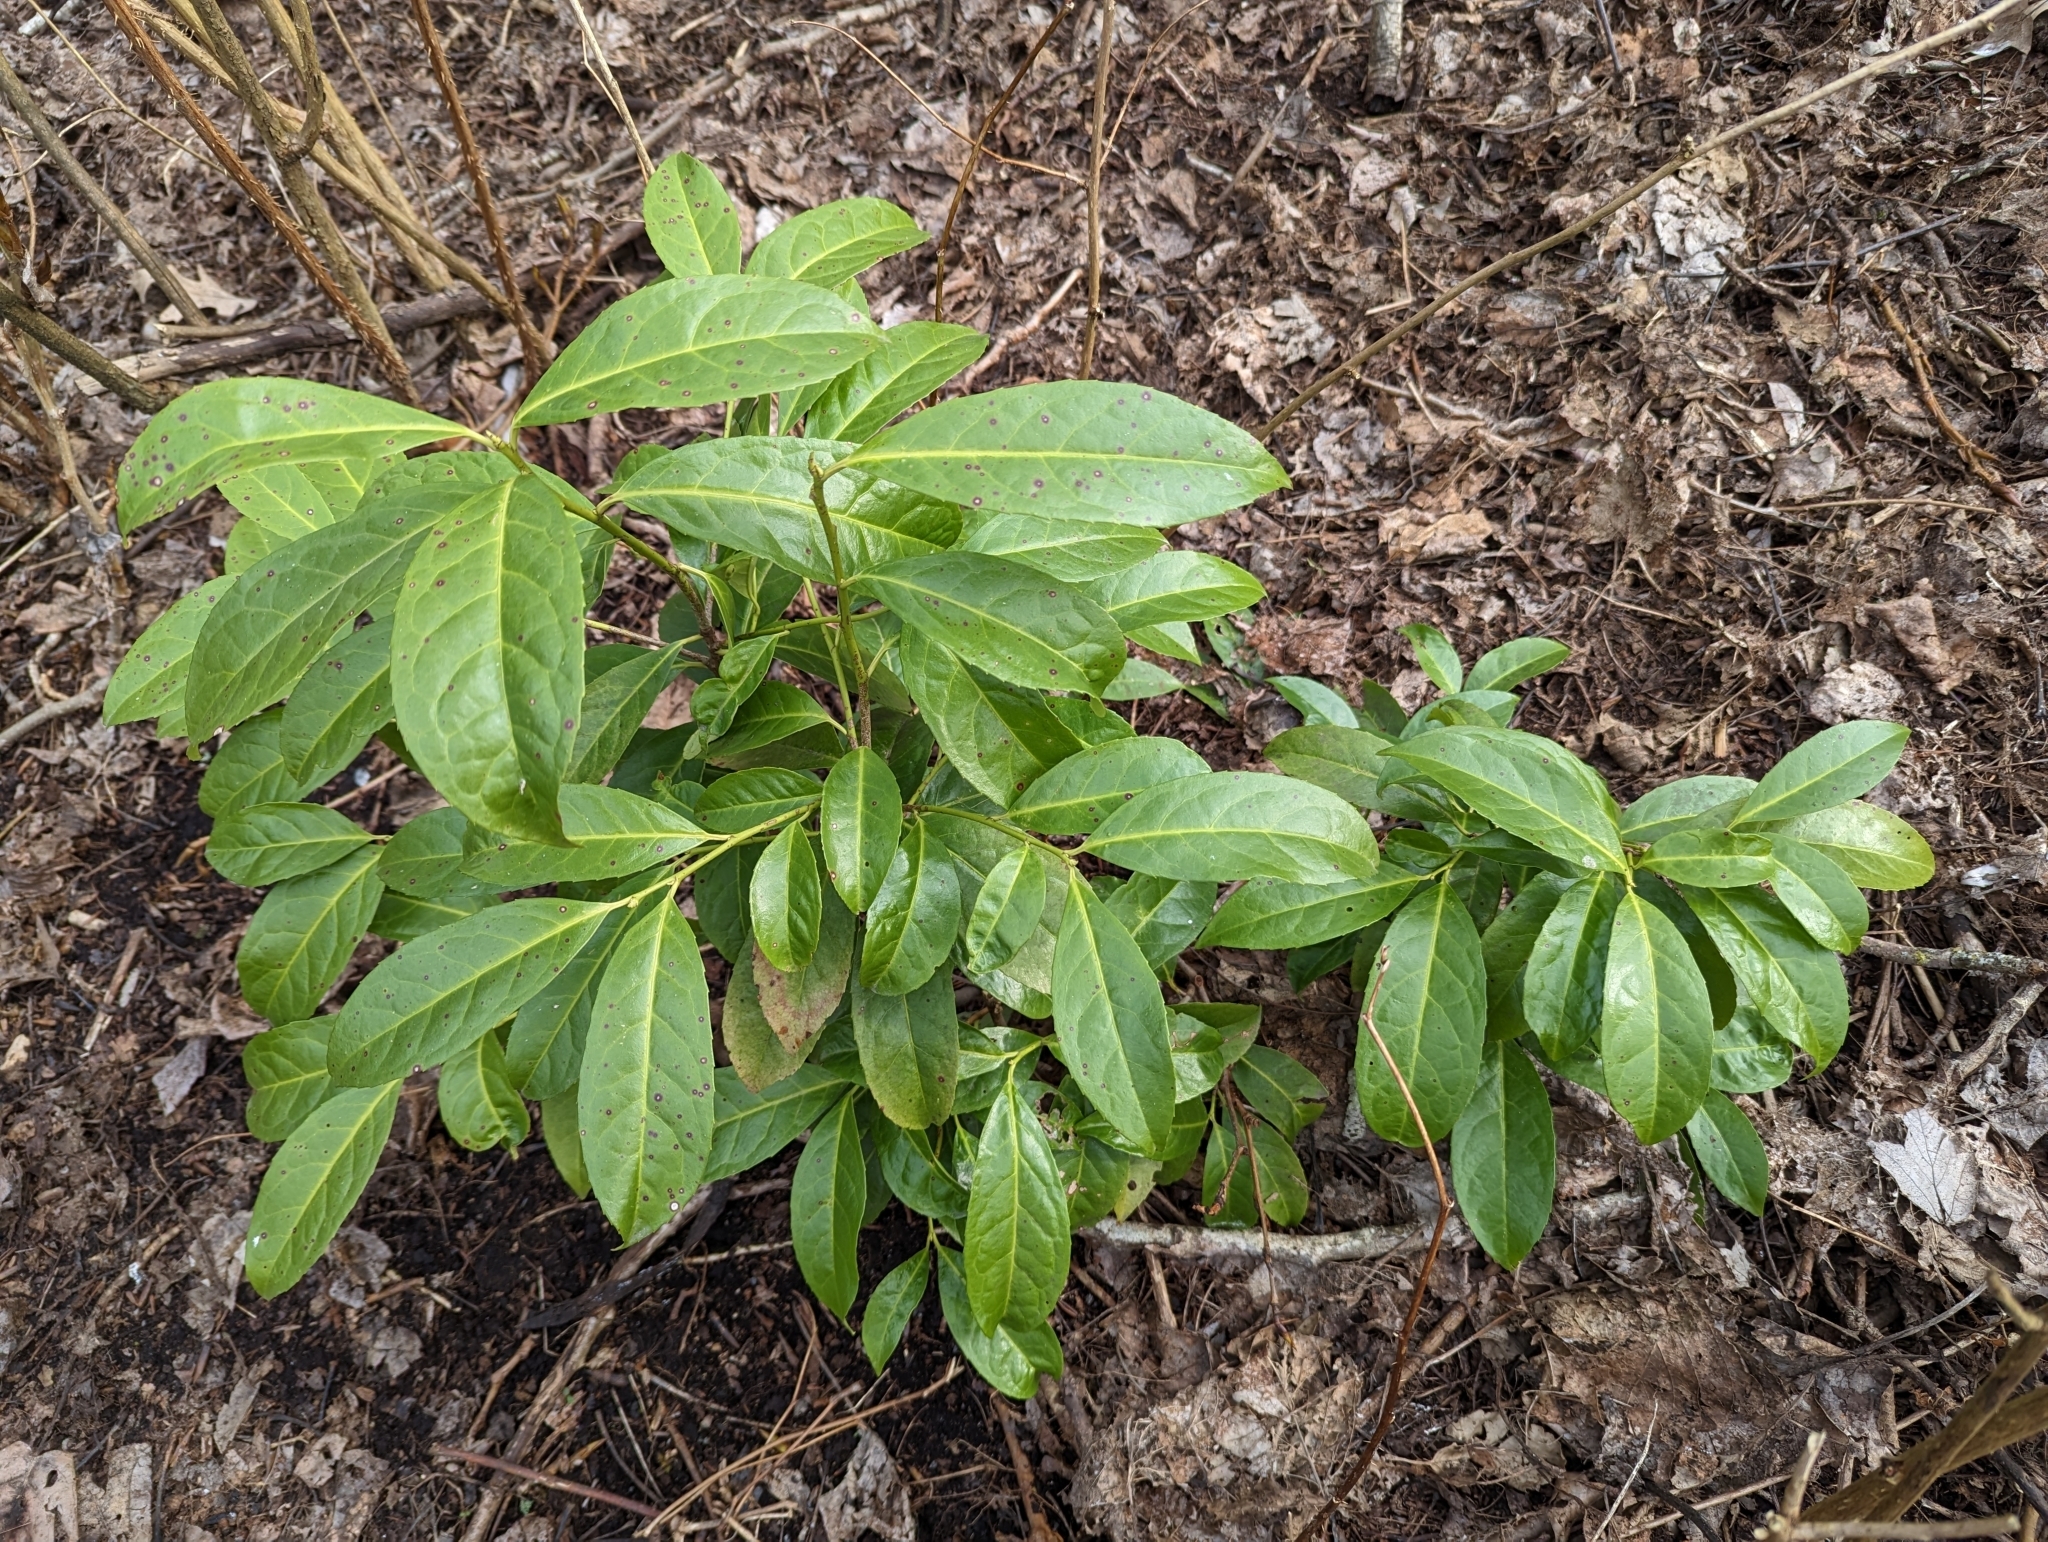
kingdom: Plantae
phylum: Tracheophyta
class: Magnoliopsida
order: Rosales
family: Rosaceae
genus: Prunus
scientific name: Prunus laurocerasus
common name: Cherry laurel
